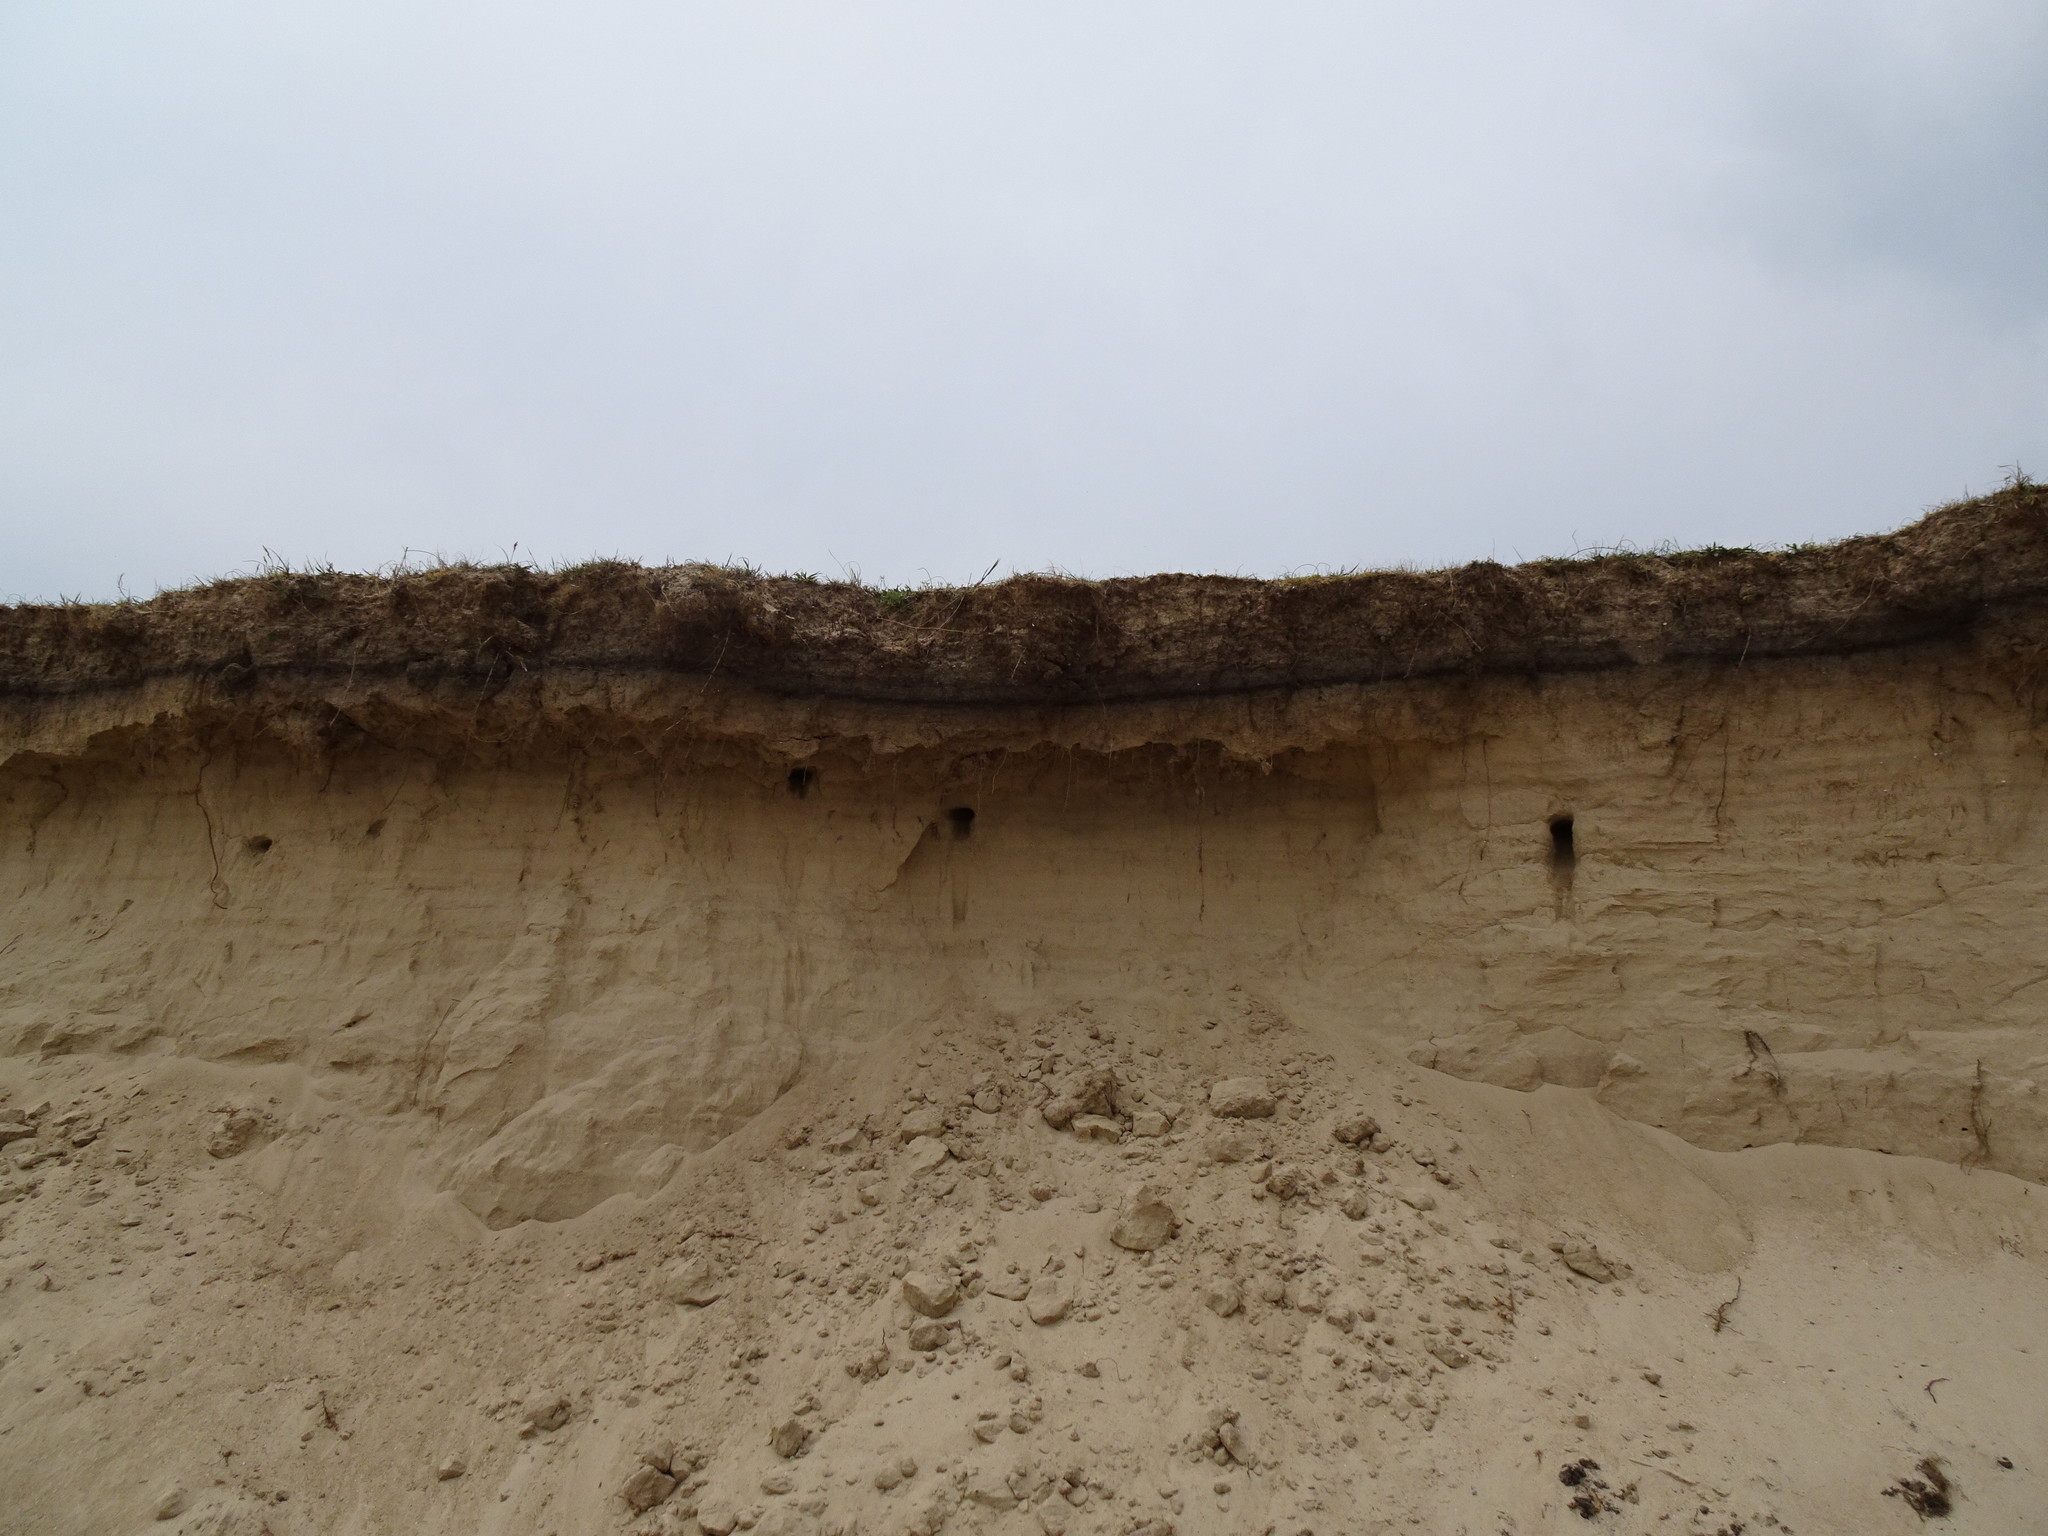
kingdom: Animalia
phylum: Chordata
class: Aves
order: Passeriformes
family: Hirundinidae
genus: Riparia
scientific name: Riparia riparia
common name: Sand martin
